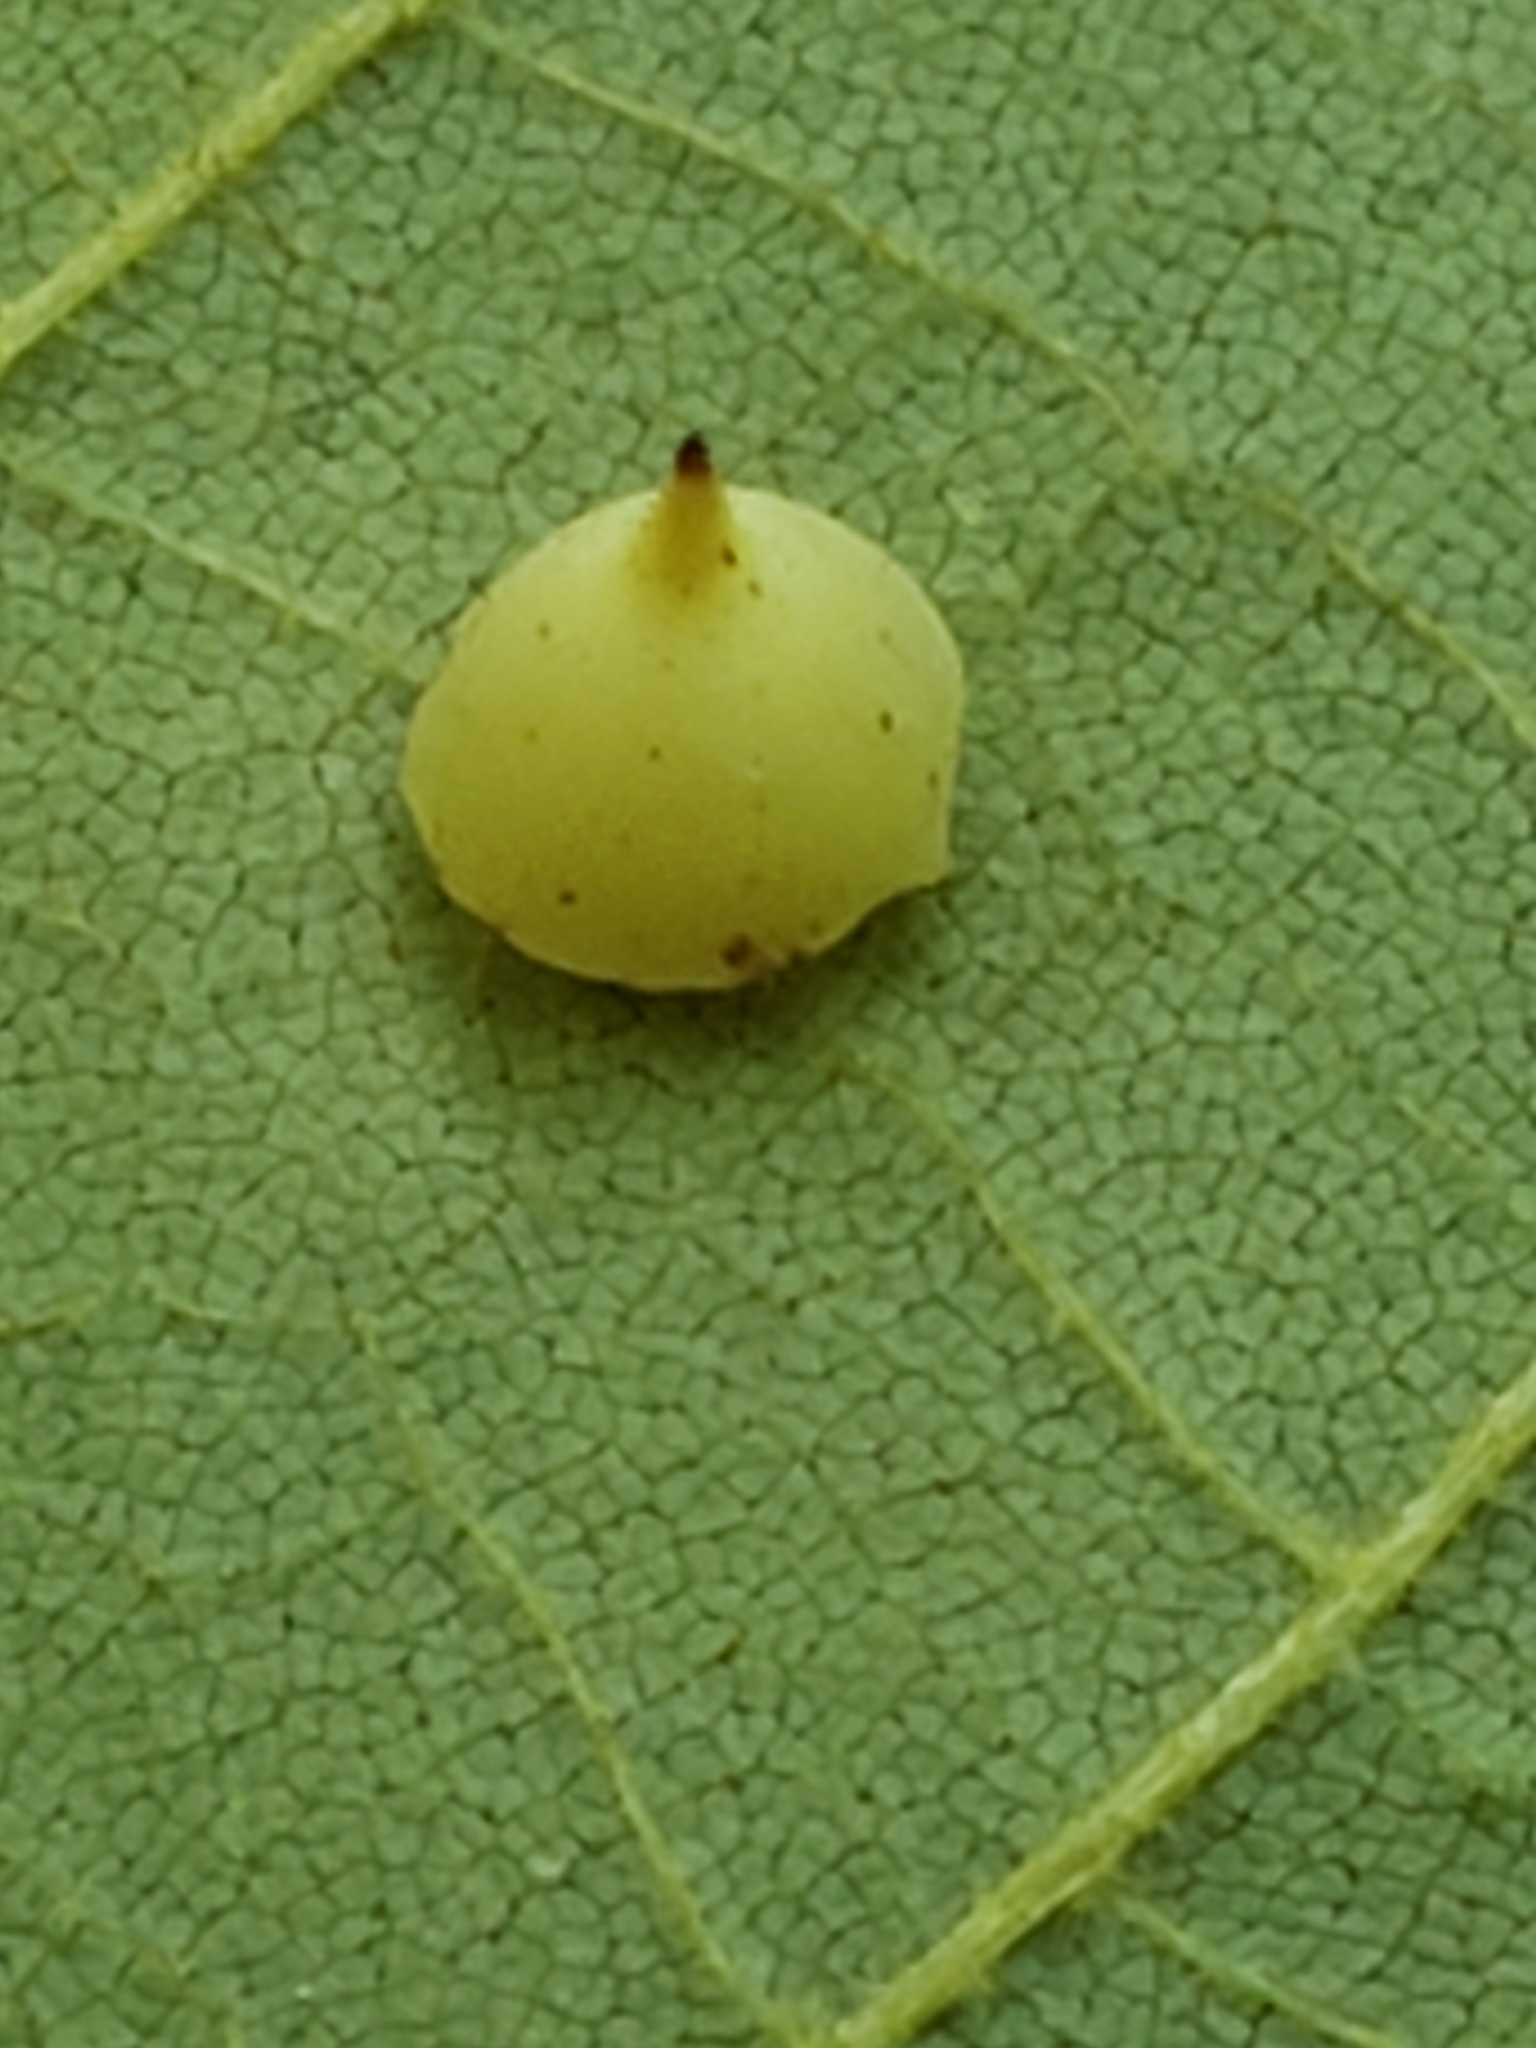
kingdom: Animalia
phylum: Arthropoda
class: Insecta
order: Diptera
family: Cecidomyiidae
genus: Caryomyia
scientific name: Caryomyia sanguinolenta
